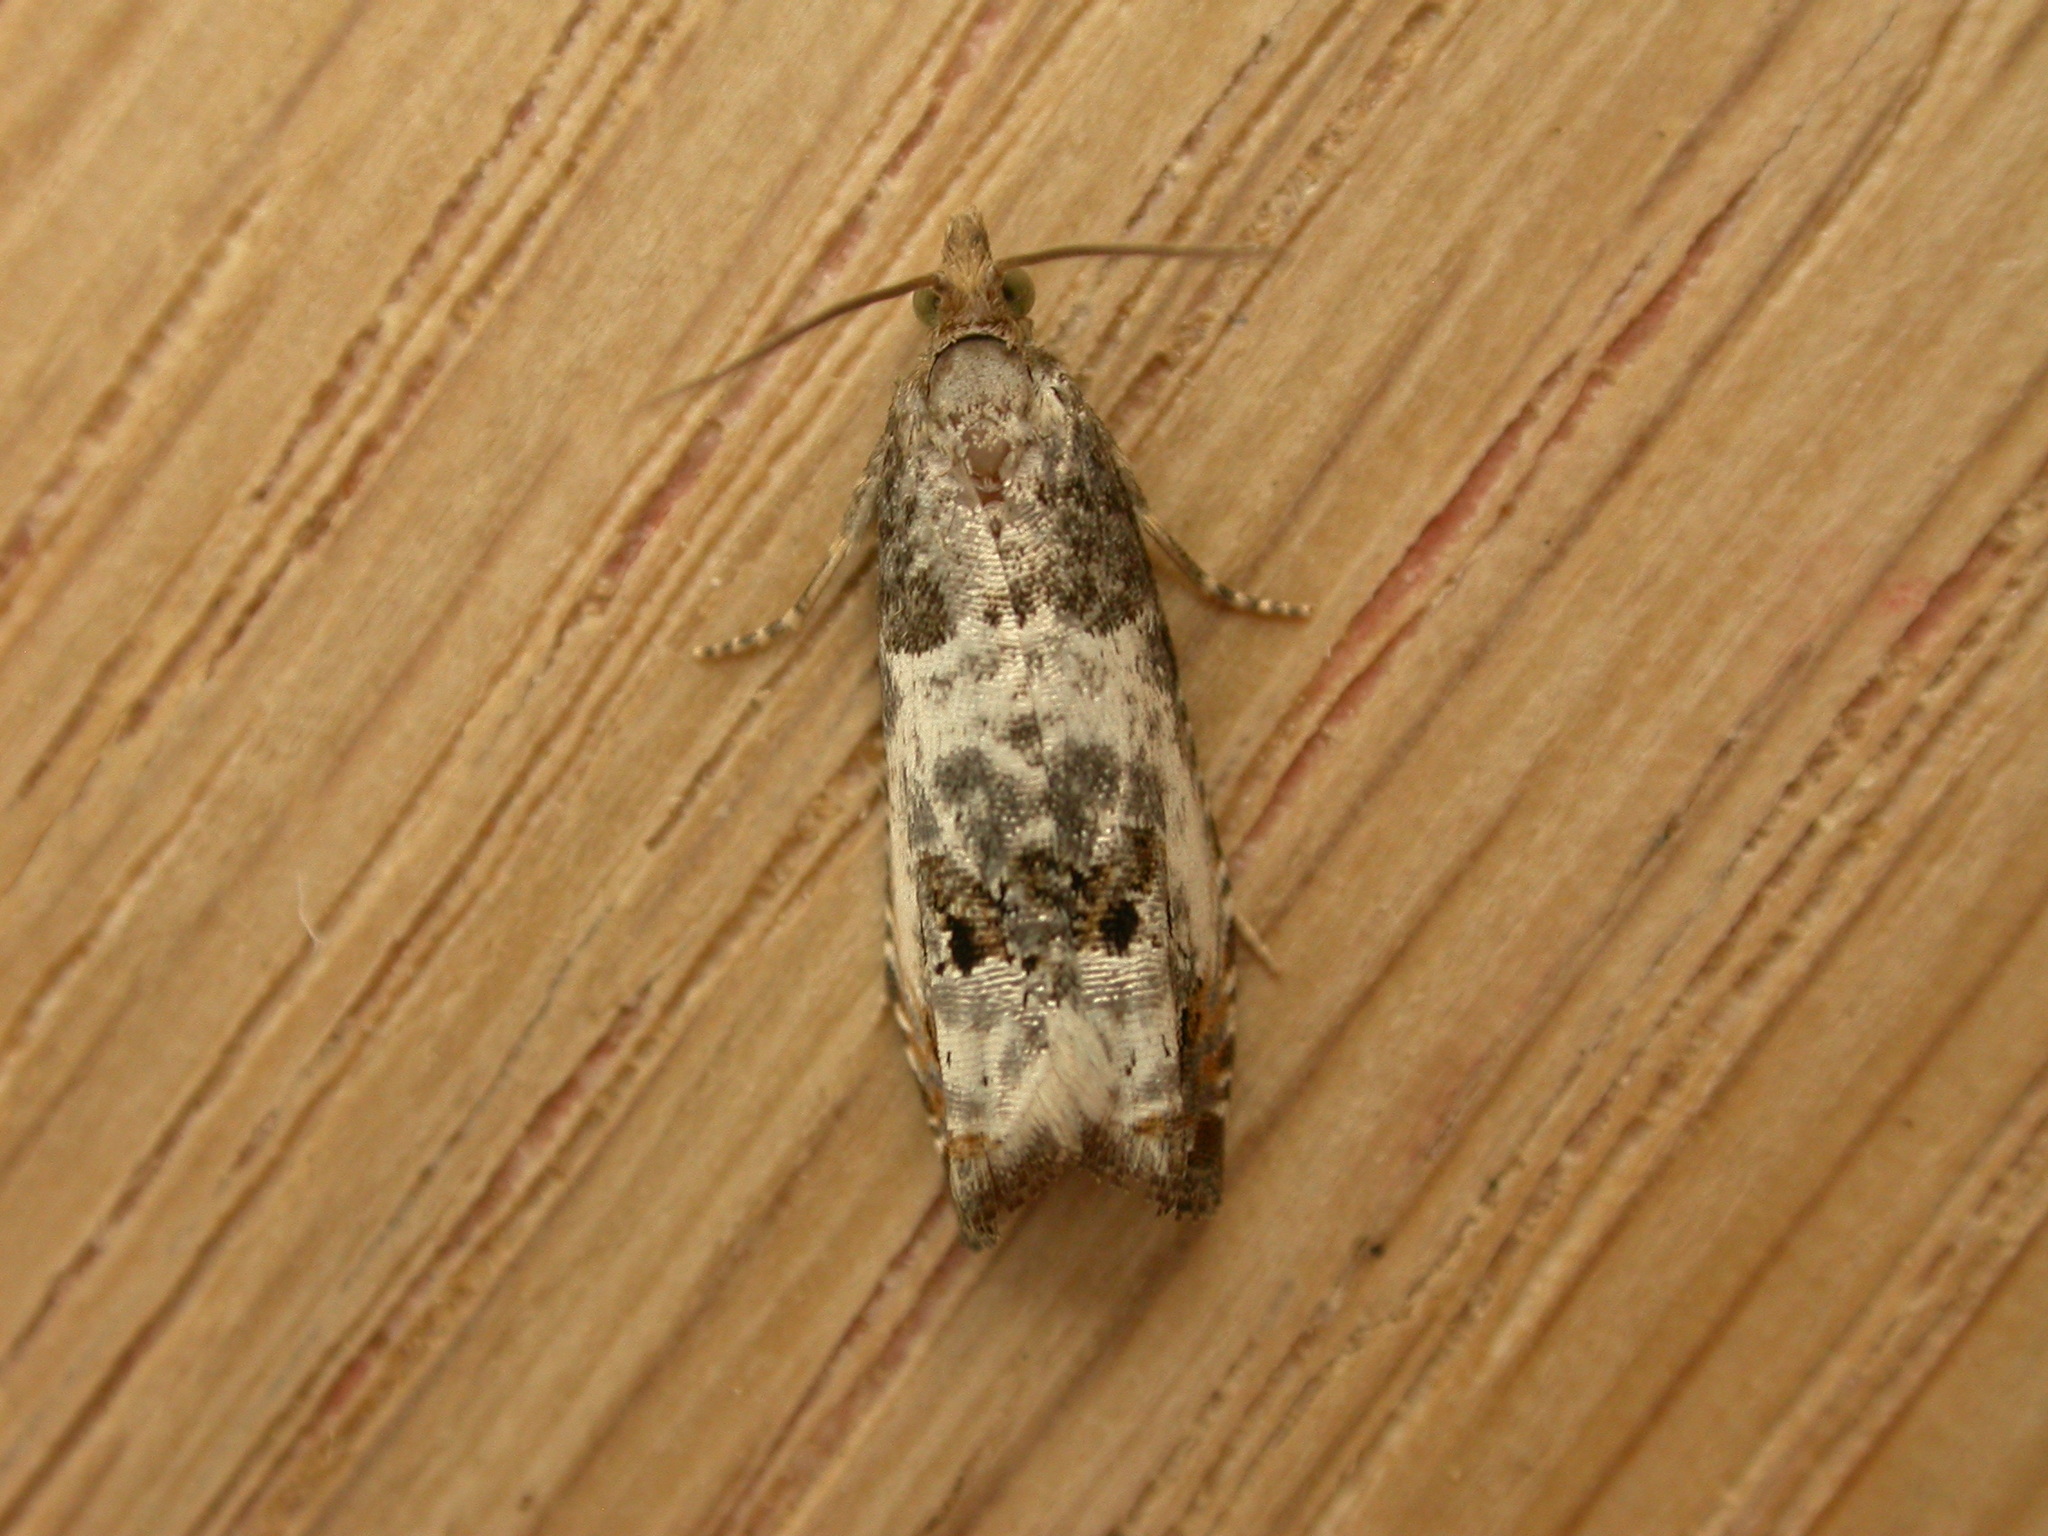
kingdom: Animalia
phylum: Arthropoda
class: Insecta
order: Lepidoptera
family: Tortricidae
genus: Notocelia
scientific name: Notocelia rosaecolana
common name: Common rose bell
